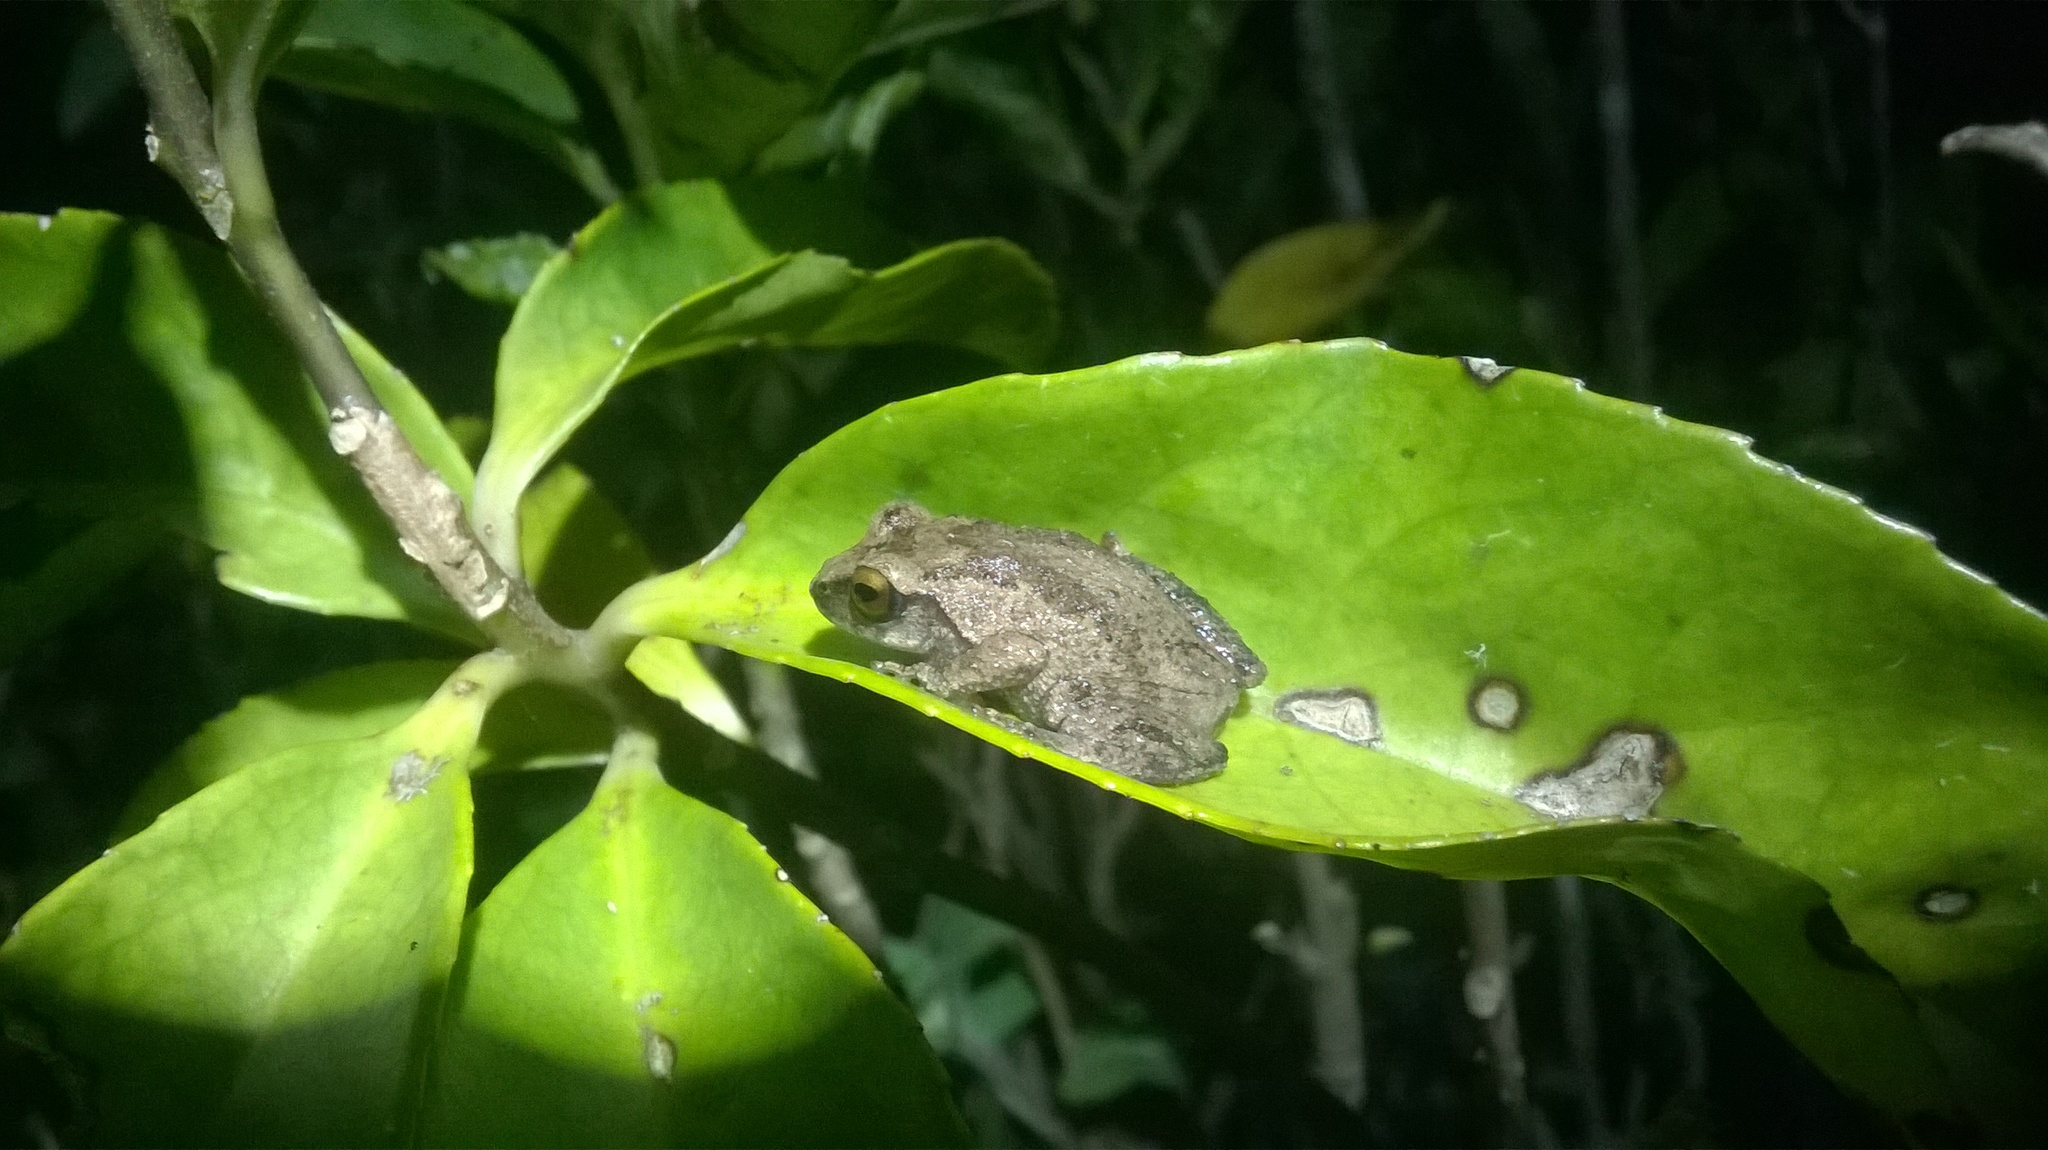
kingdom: Animalia
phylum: Chordata
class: Amphibia
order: Anura
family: Rhacophoridae
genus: Raorchestes
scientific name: Raorchestes dubois
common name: Koadaikanal bush frog
